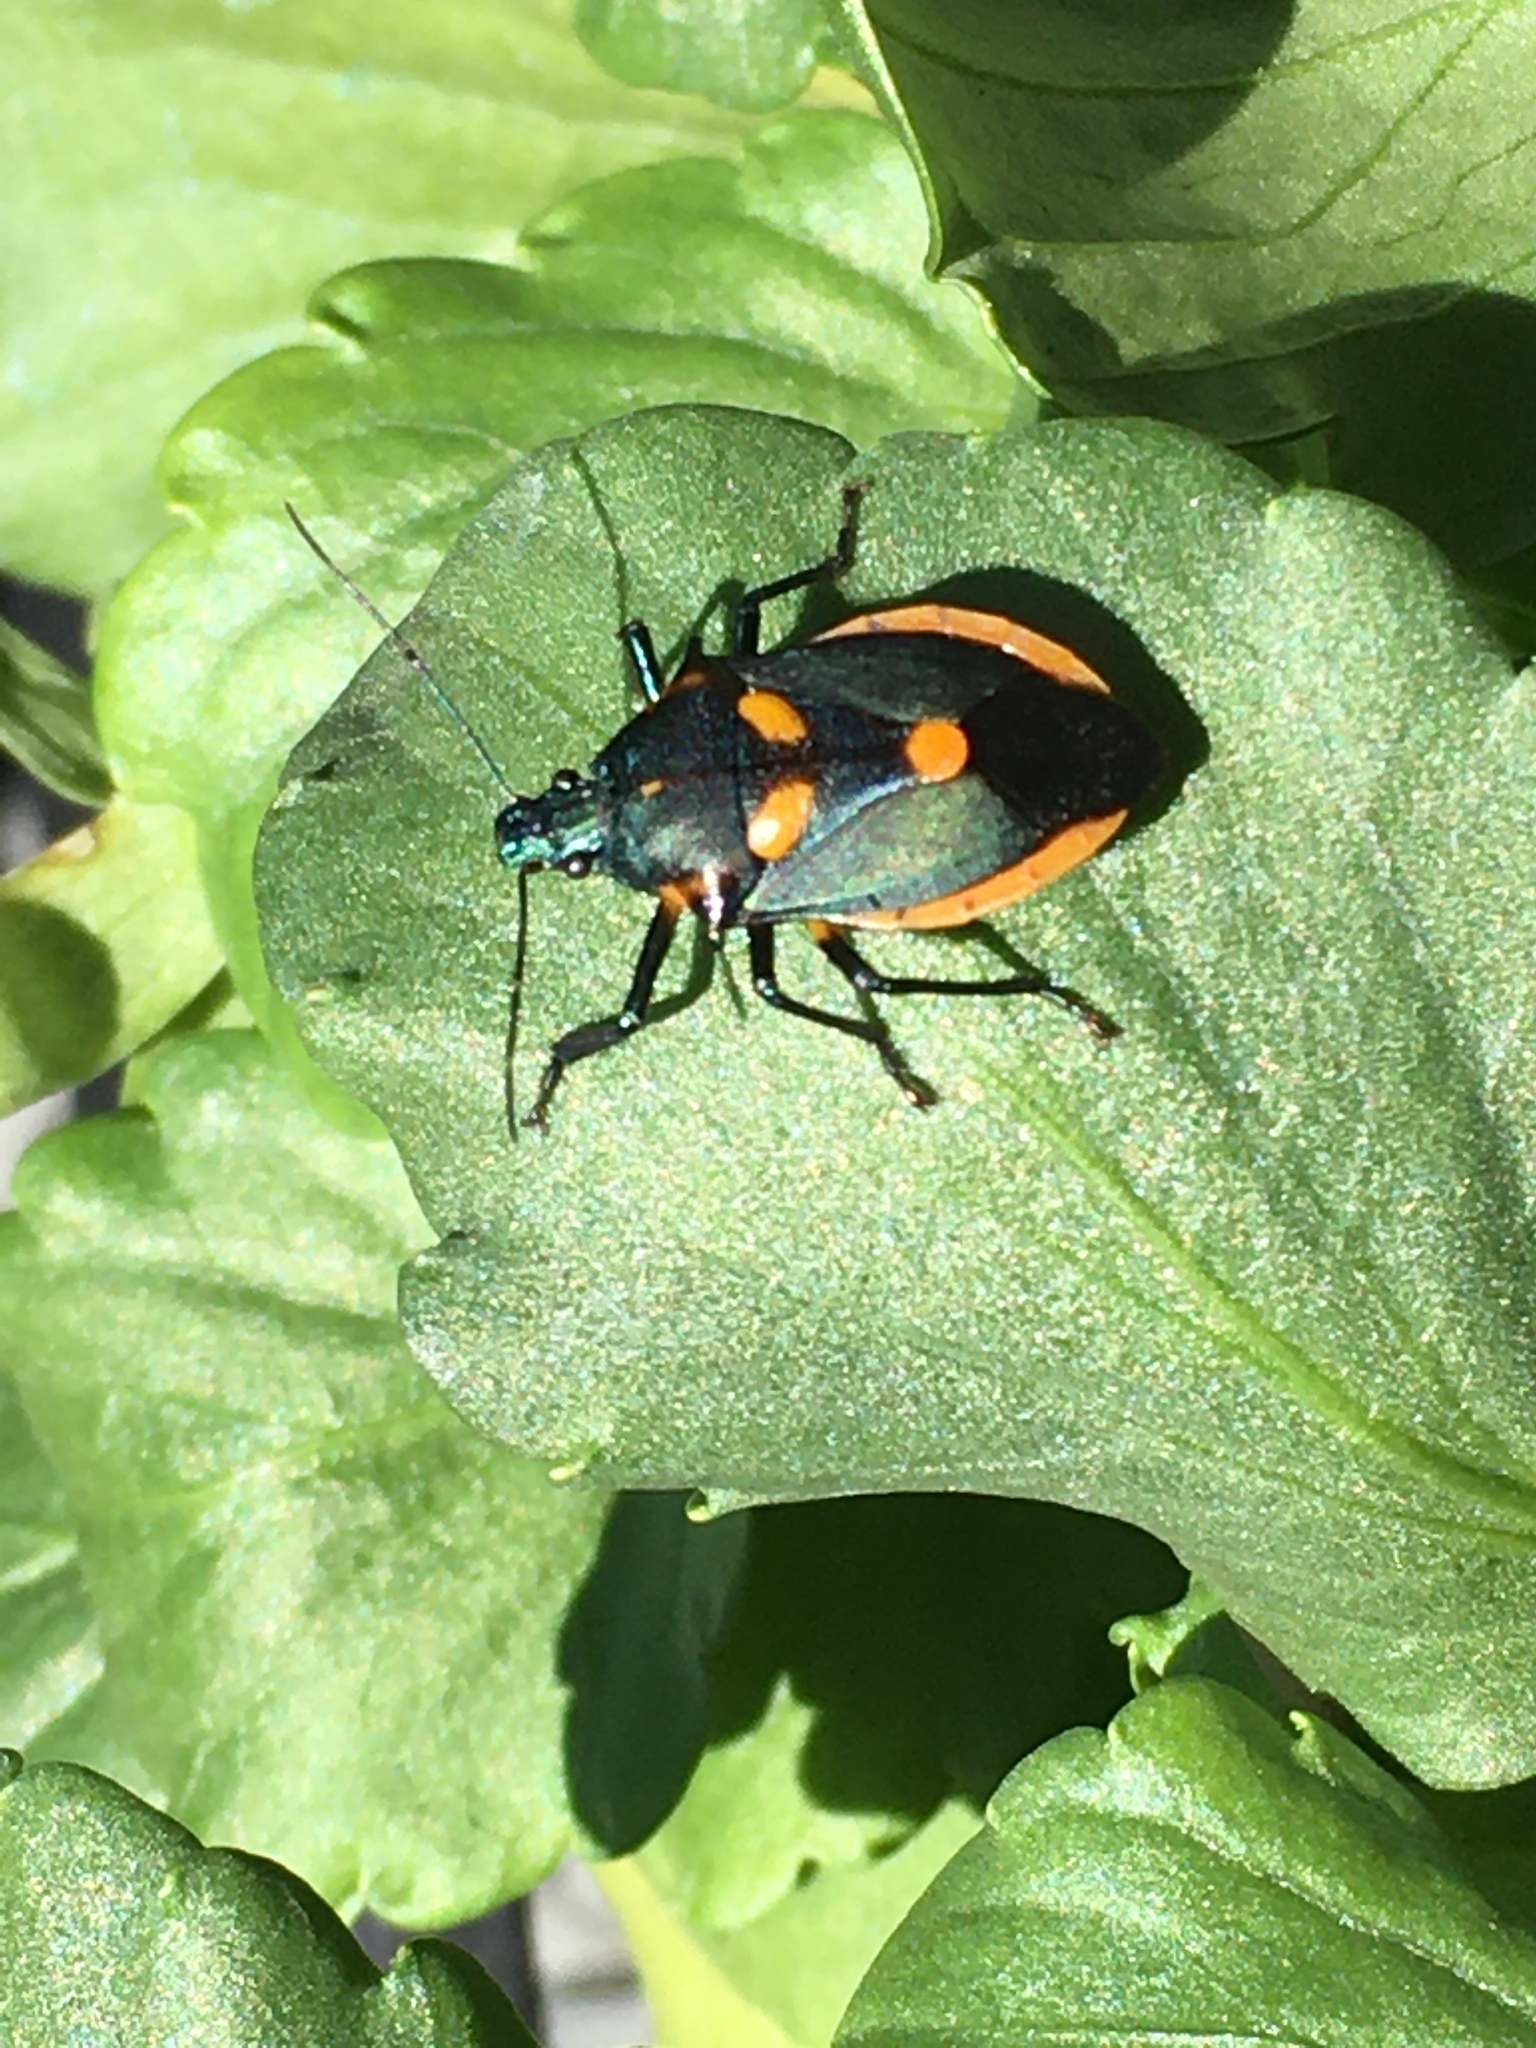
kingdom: Animalia
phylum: Arthropoda
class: Insecta
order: Hemiptera
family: Pentatomidae
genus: Euthyrhynchus
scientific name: Euthyrhynchus floridanus
